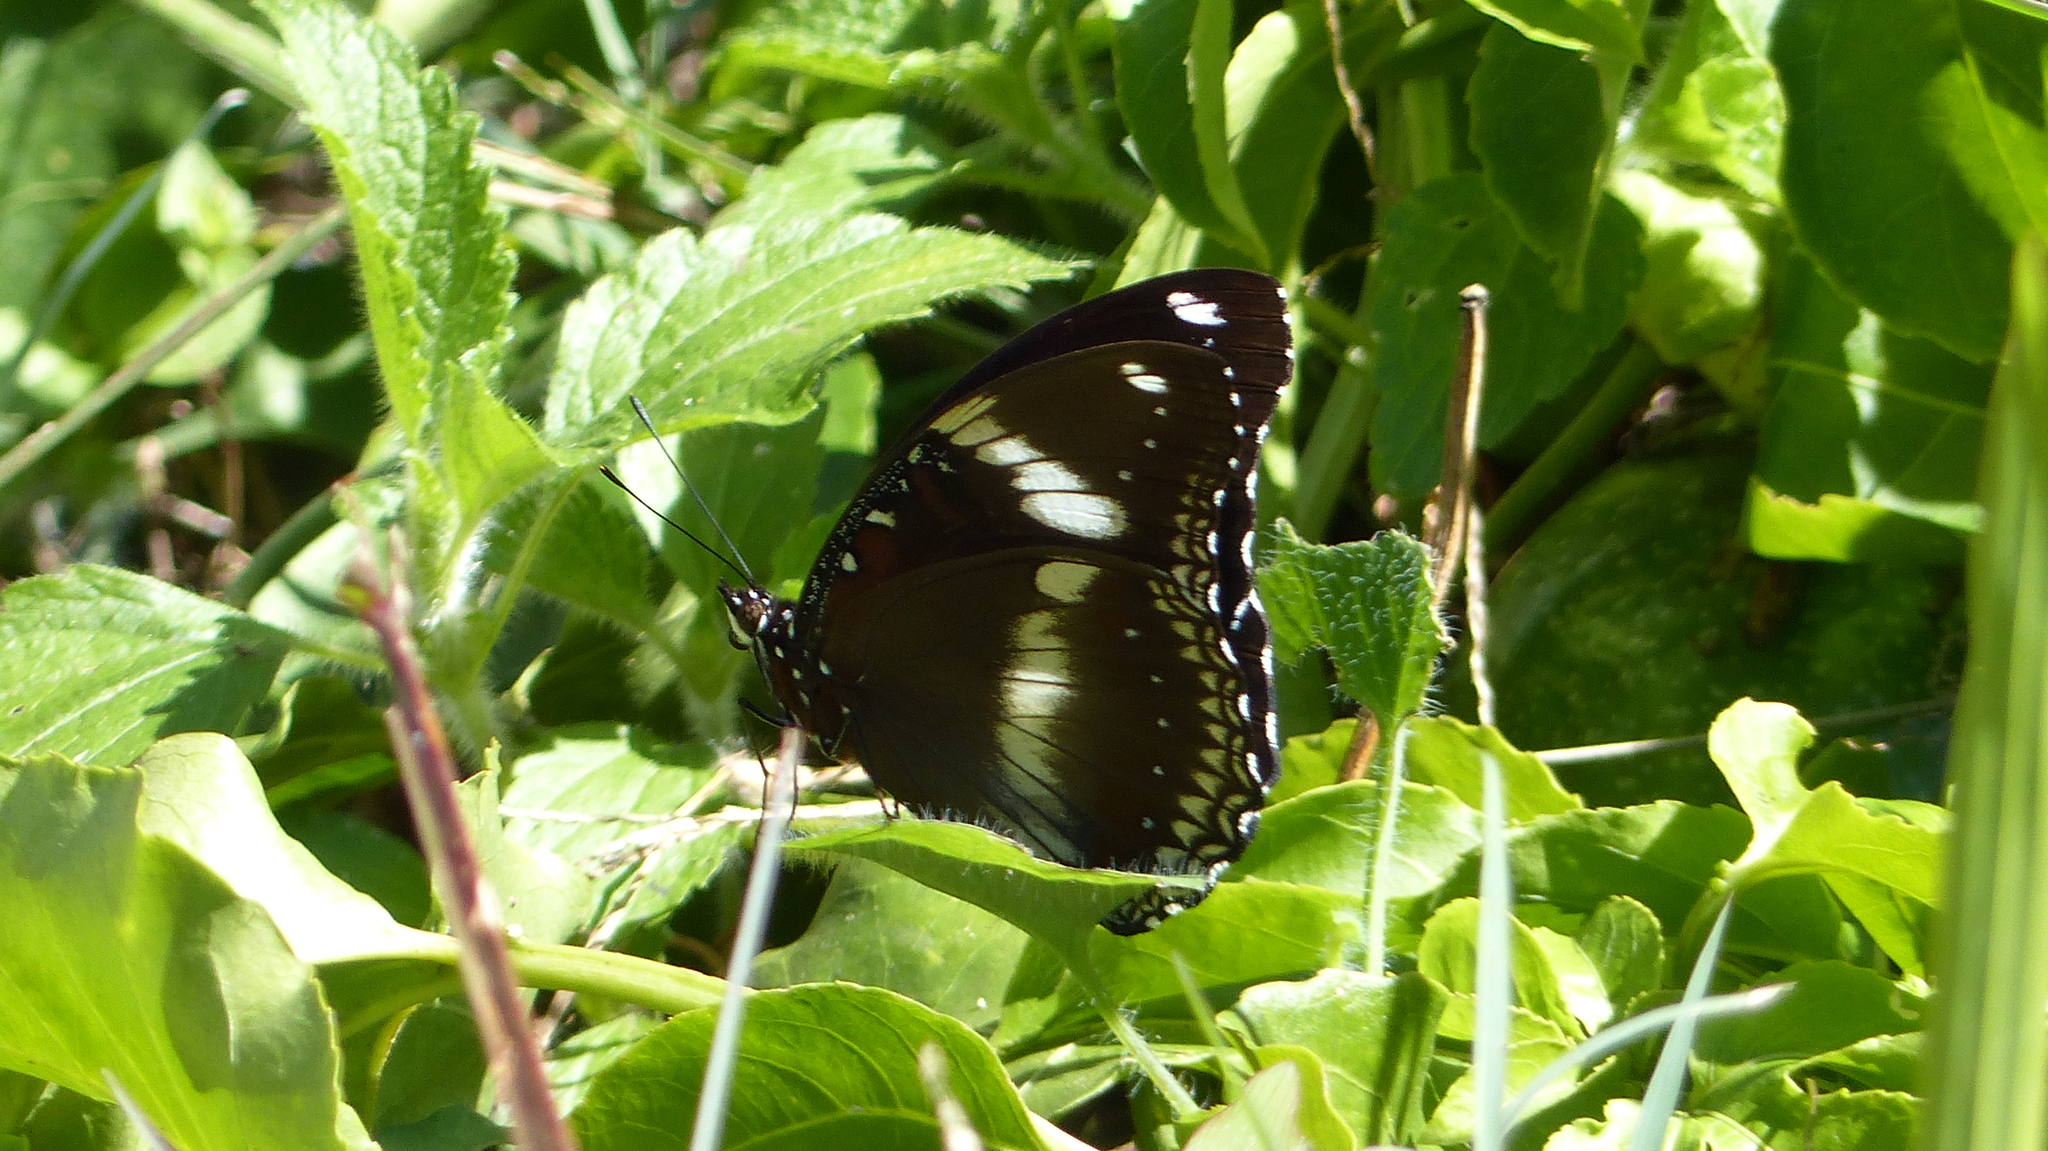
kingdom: Animalia
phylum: Arthropoda
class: Insecta
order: Lepidoptera
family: Nymphalidae
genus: Hypolimnas
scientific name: Hypolimnas bolina
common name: Great eggfly
